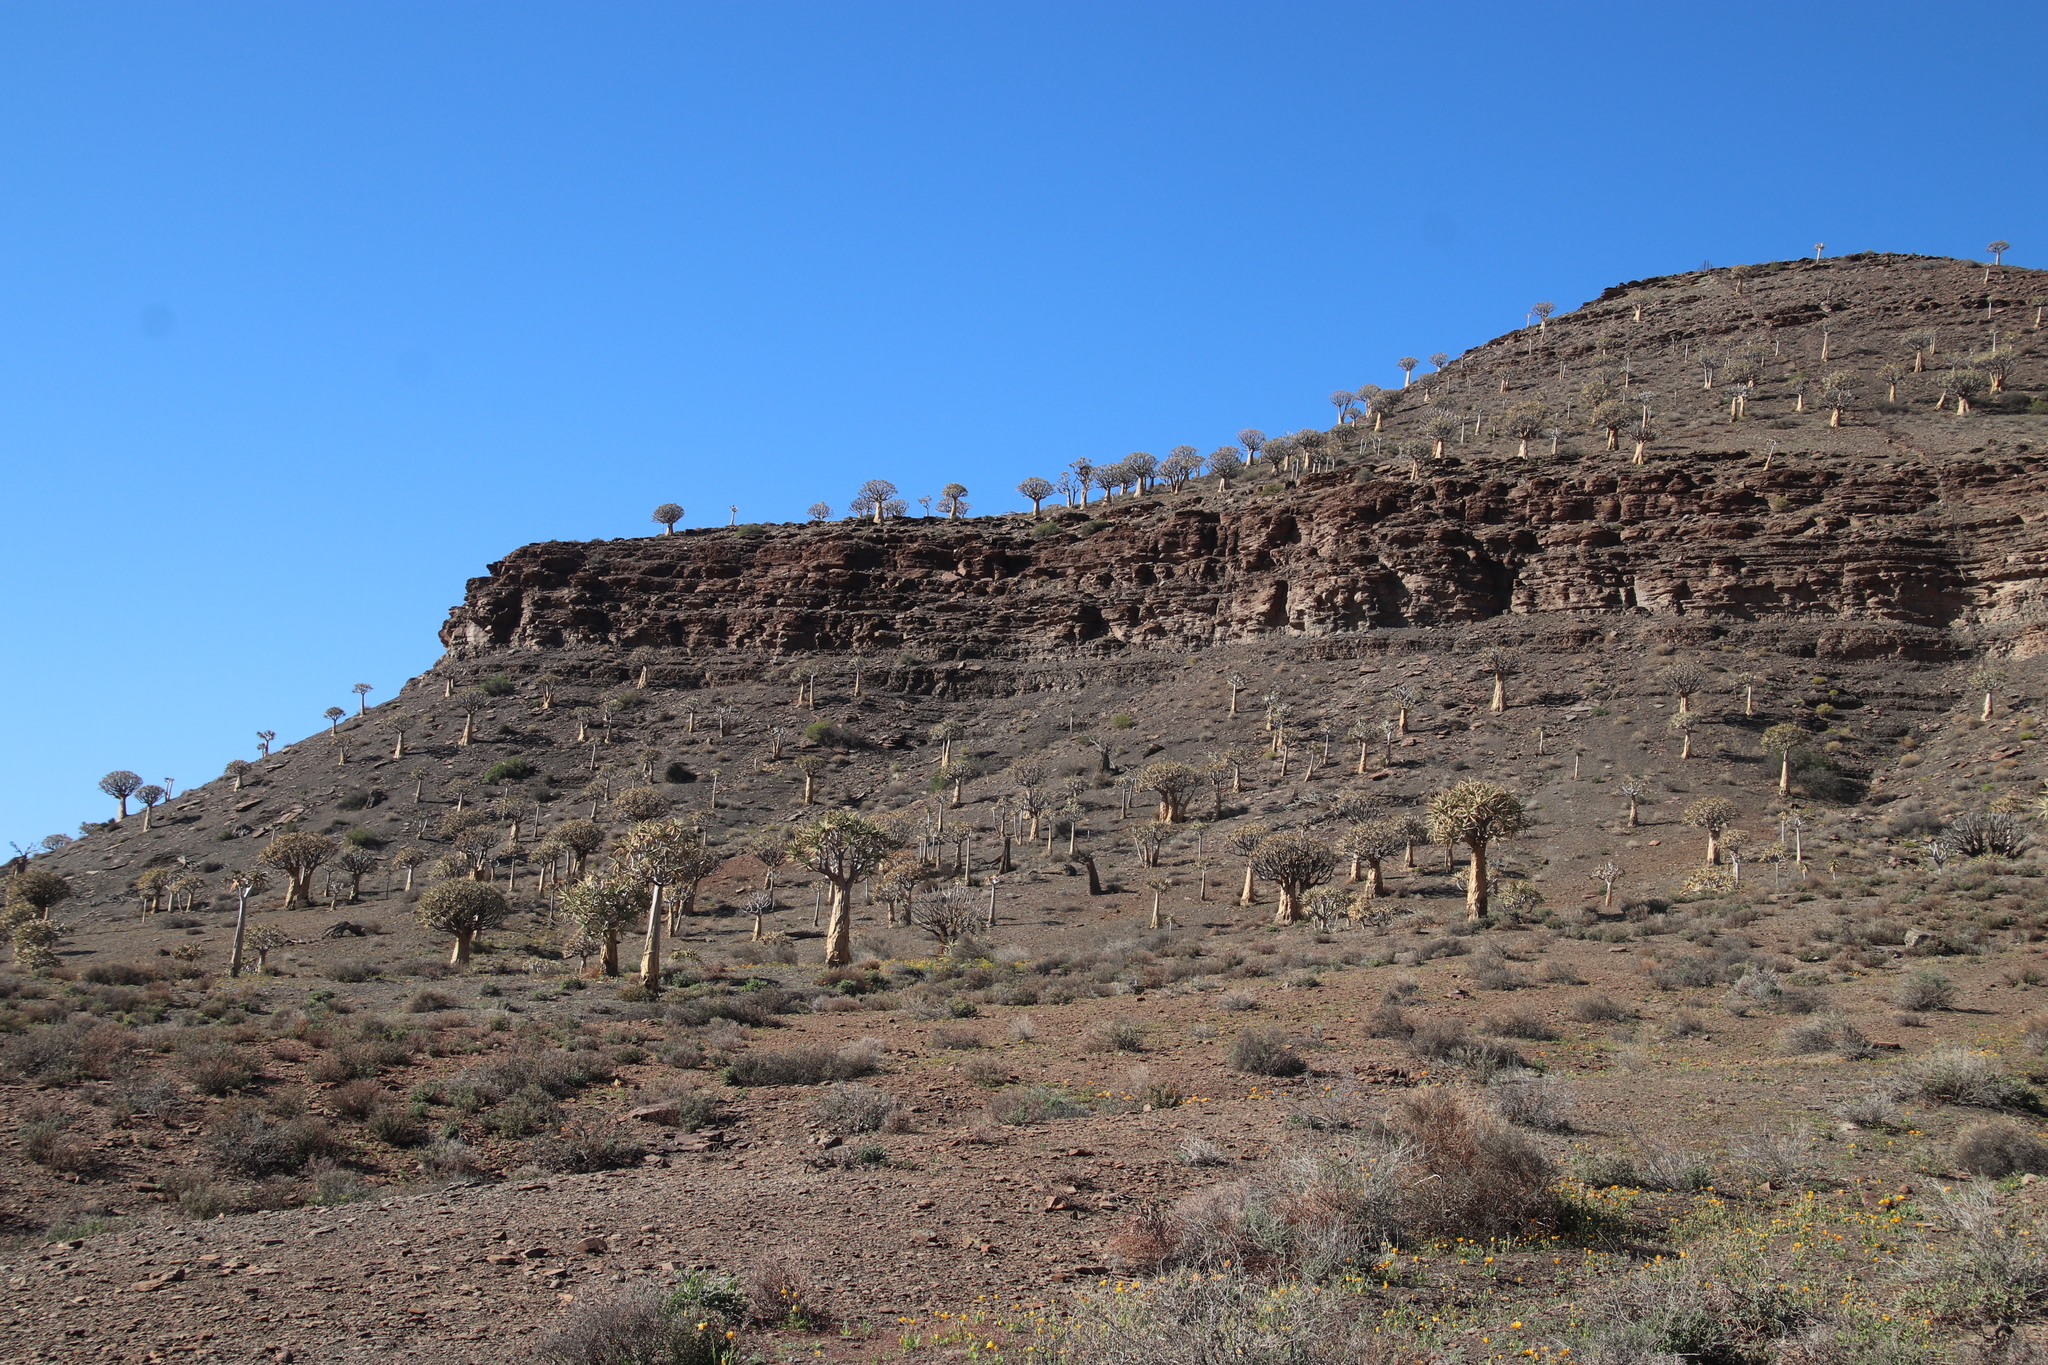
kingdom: Plantae
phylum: Tracheophyta
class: Liliopsida
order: Asparagales
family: Asphodelaceae
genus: Aloidendron
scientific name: Aloidendron dichotomum
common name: Quiver tree
